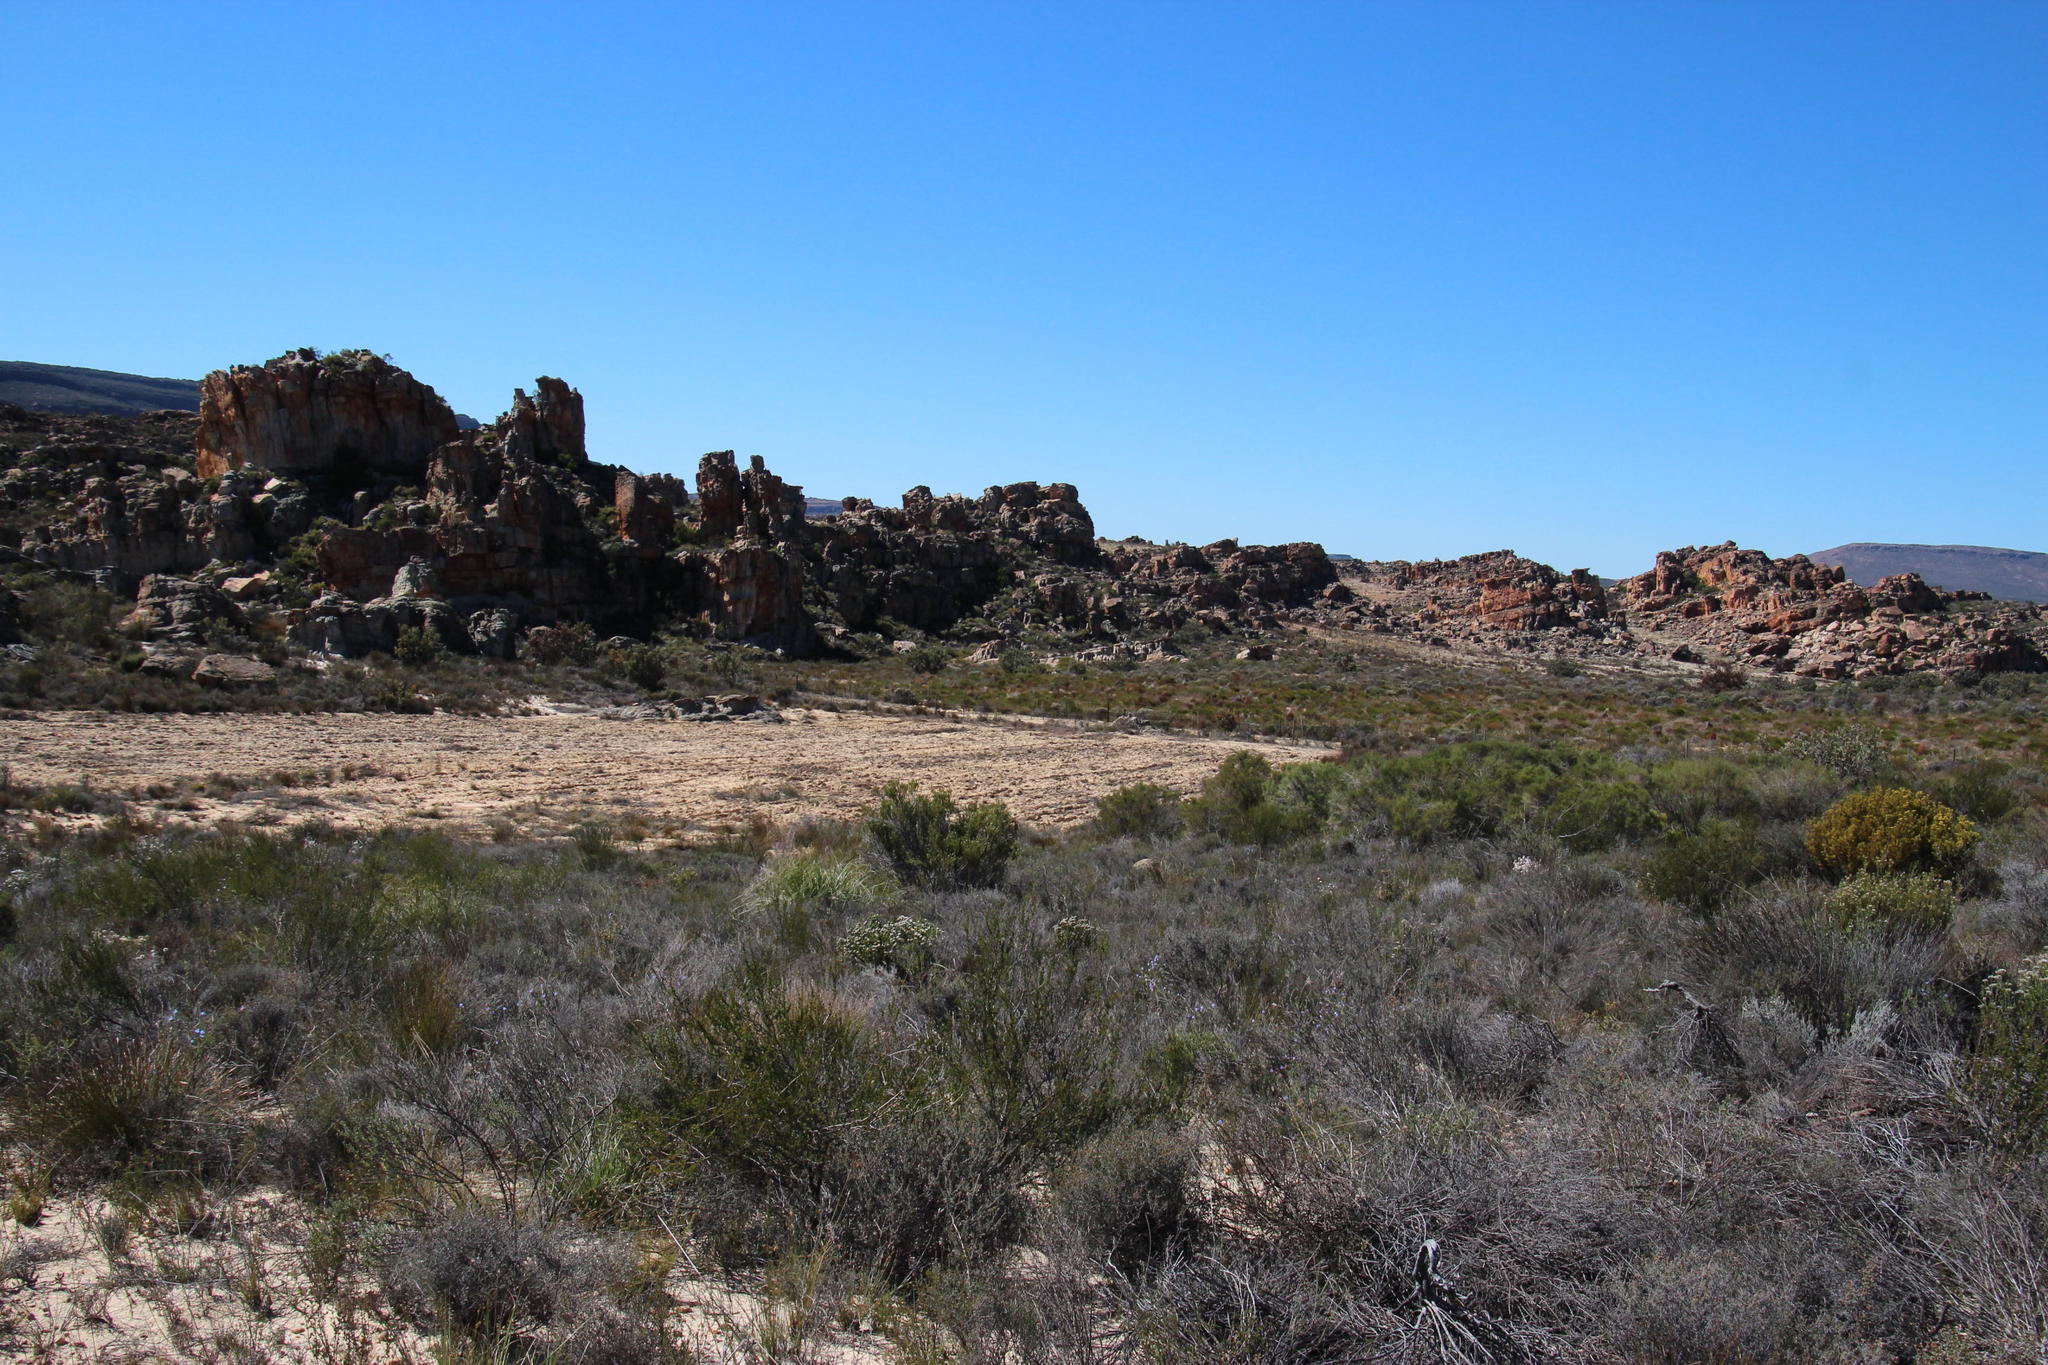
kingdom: Plantae
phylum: Tracheophyta
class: Magnoliopsida
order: Fabales
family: Fabaceae
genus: Aspalathus
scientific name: Aspalathus linearis
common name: Rooibos-tea
